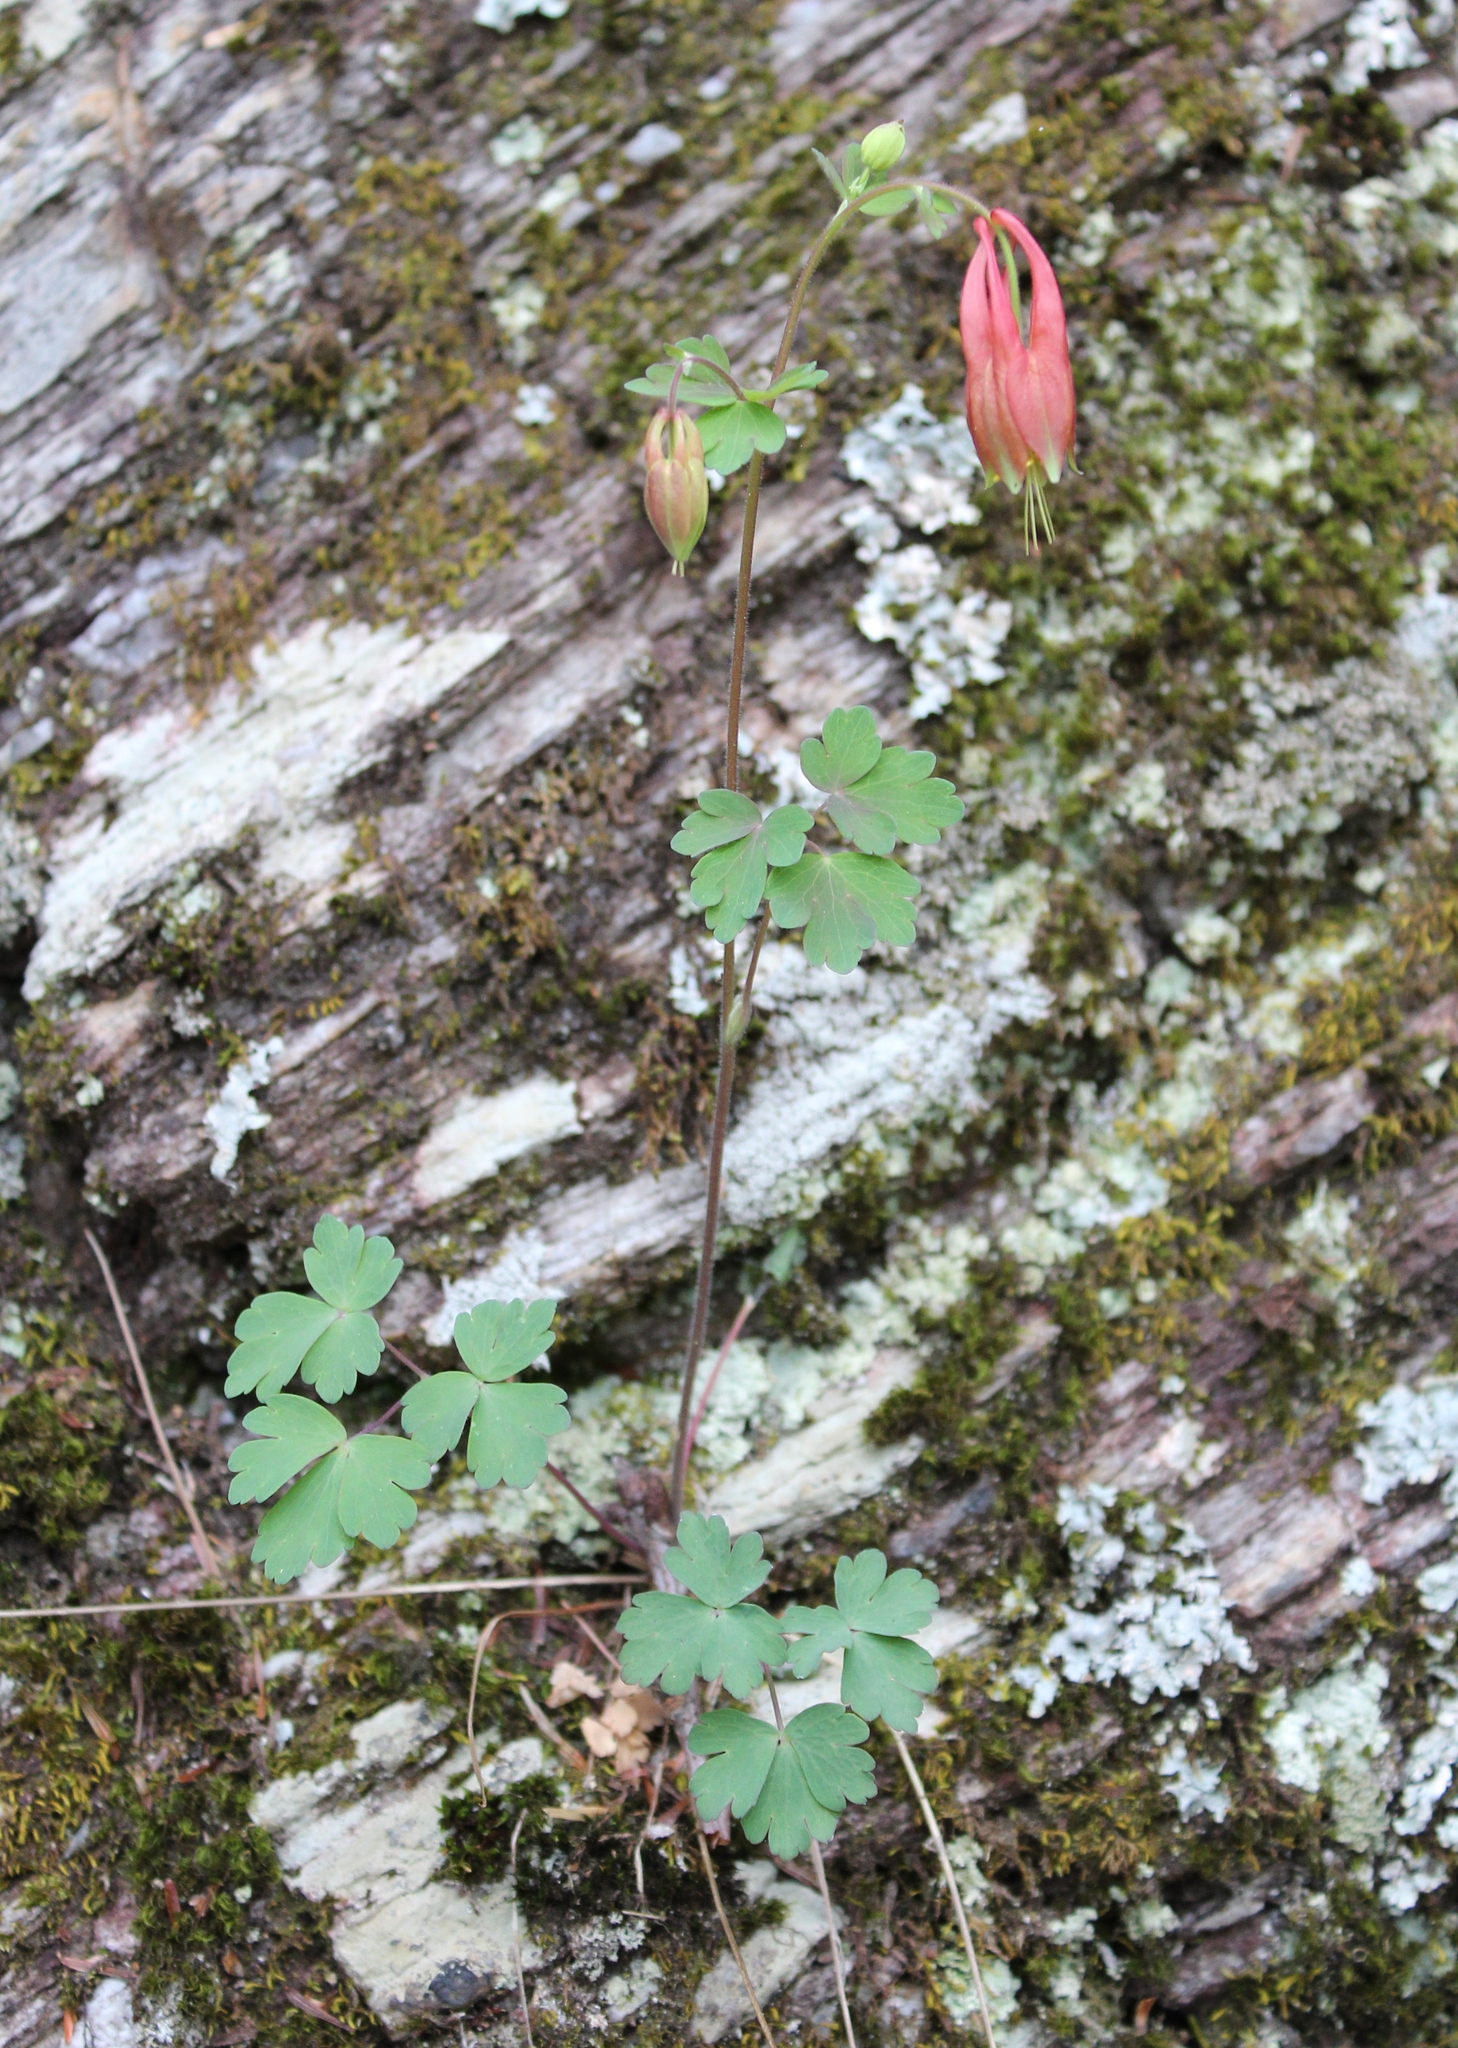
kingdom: Plantae
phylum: Tracheophyta
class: Magnoliopsida
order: Ranunculales
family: Ranunculaceae
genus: Aquilegia
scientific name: Aquilegia canadensis
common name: American columbine
